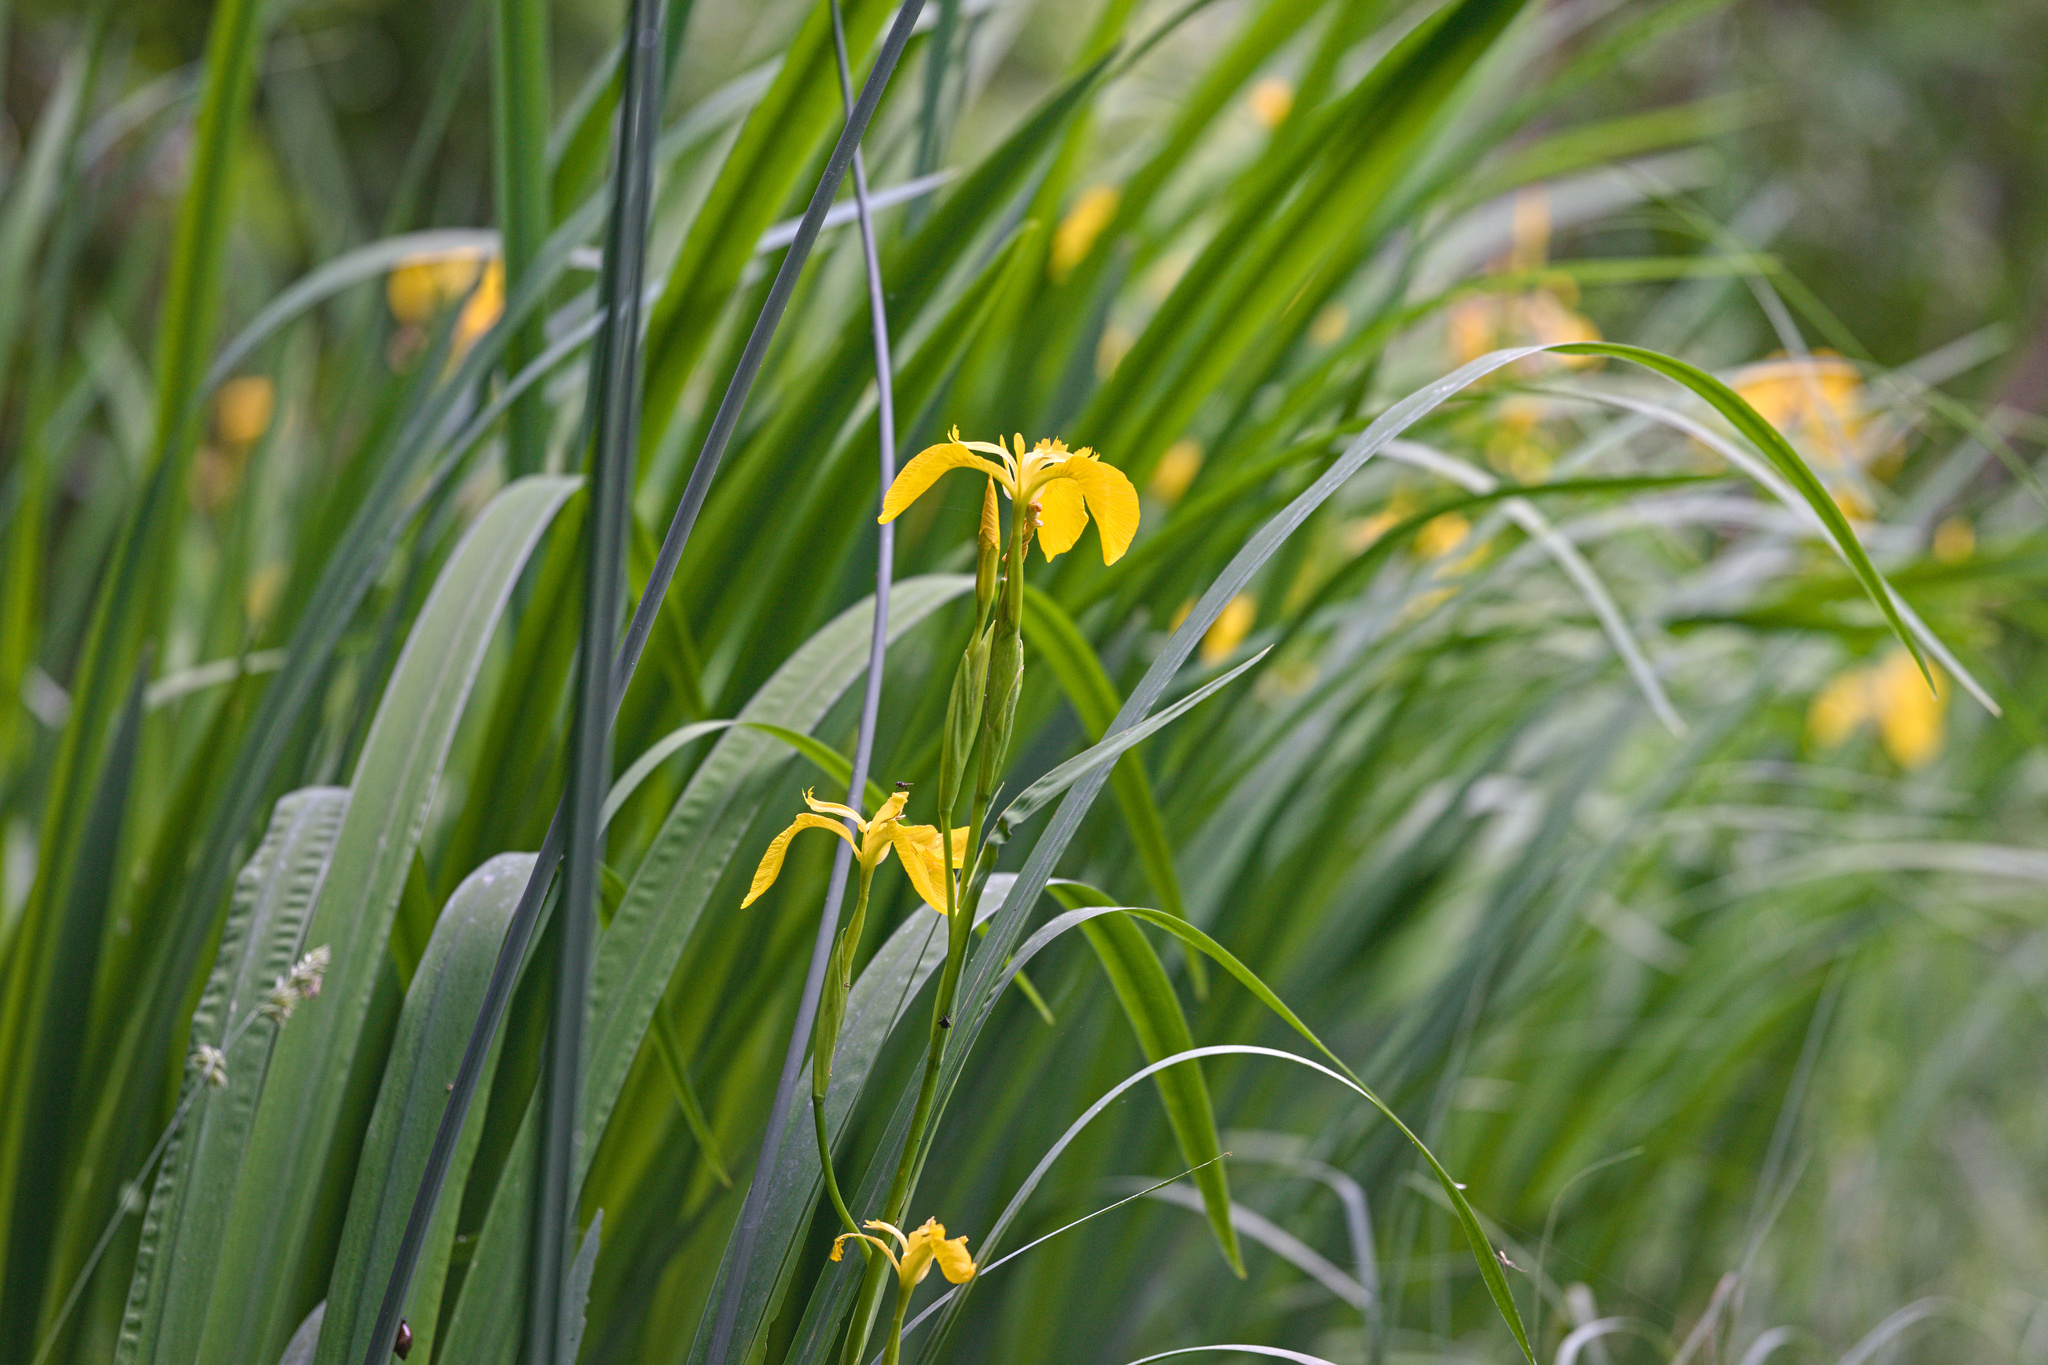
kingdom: Plantae
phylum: Tracheophyta
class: Liliopsida
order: Asparagales
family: Iridaceae
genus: Iris
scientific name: Iris pseudacorus
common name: Yellow flag
